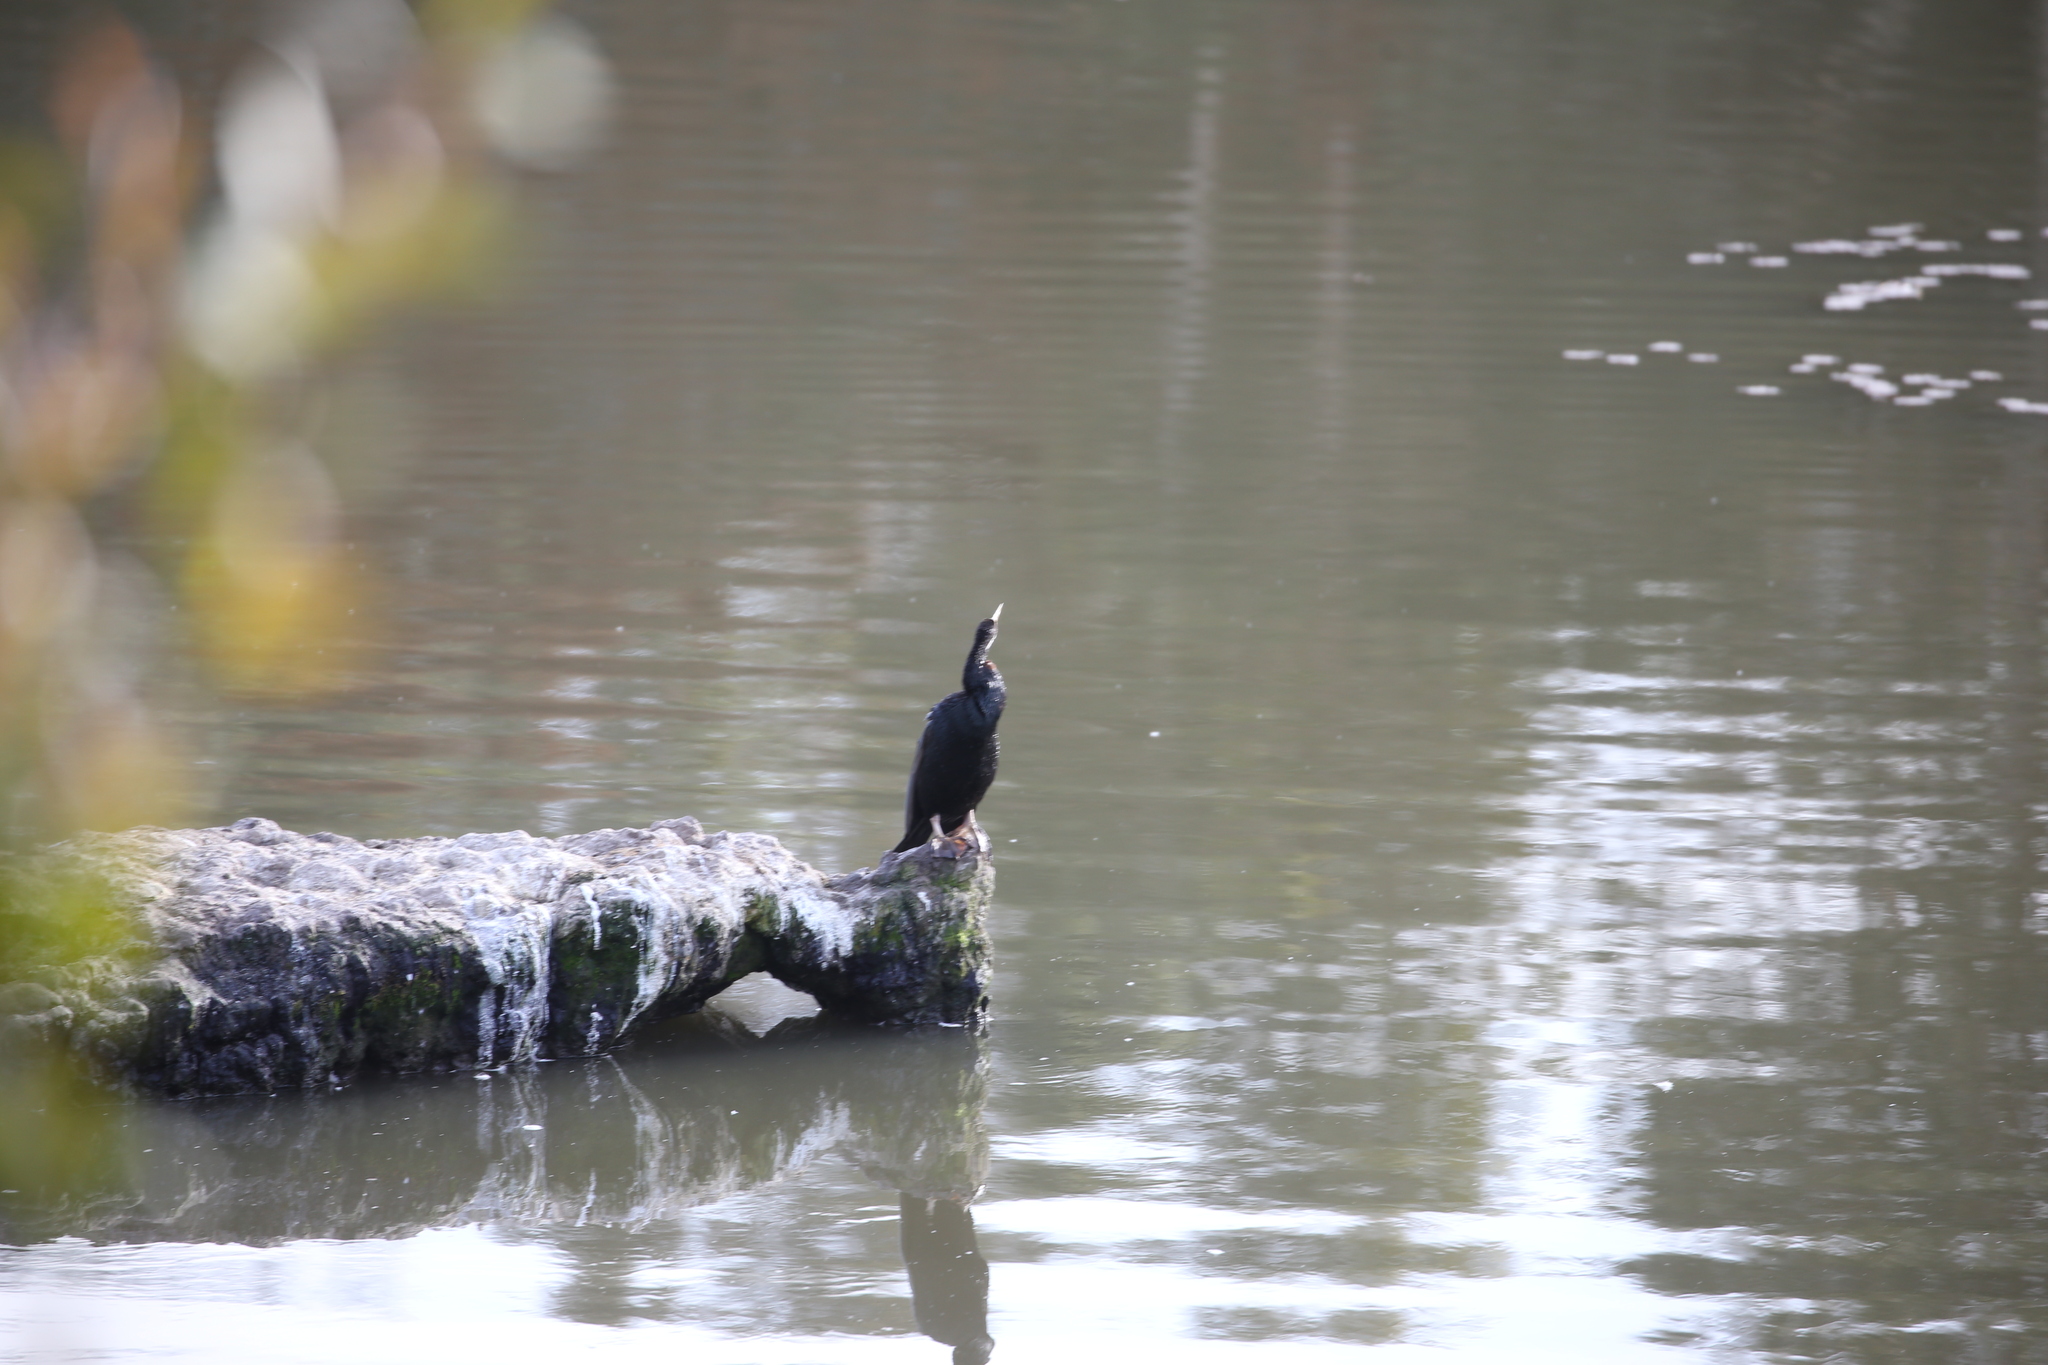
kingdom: Animalia
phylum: Chordata
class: Aves
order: Suliformes
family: Anhingidae
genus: Anhinga
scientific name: Anhinga novaehollandiae
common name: Australasian darter
